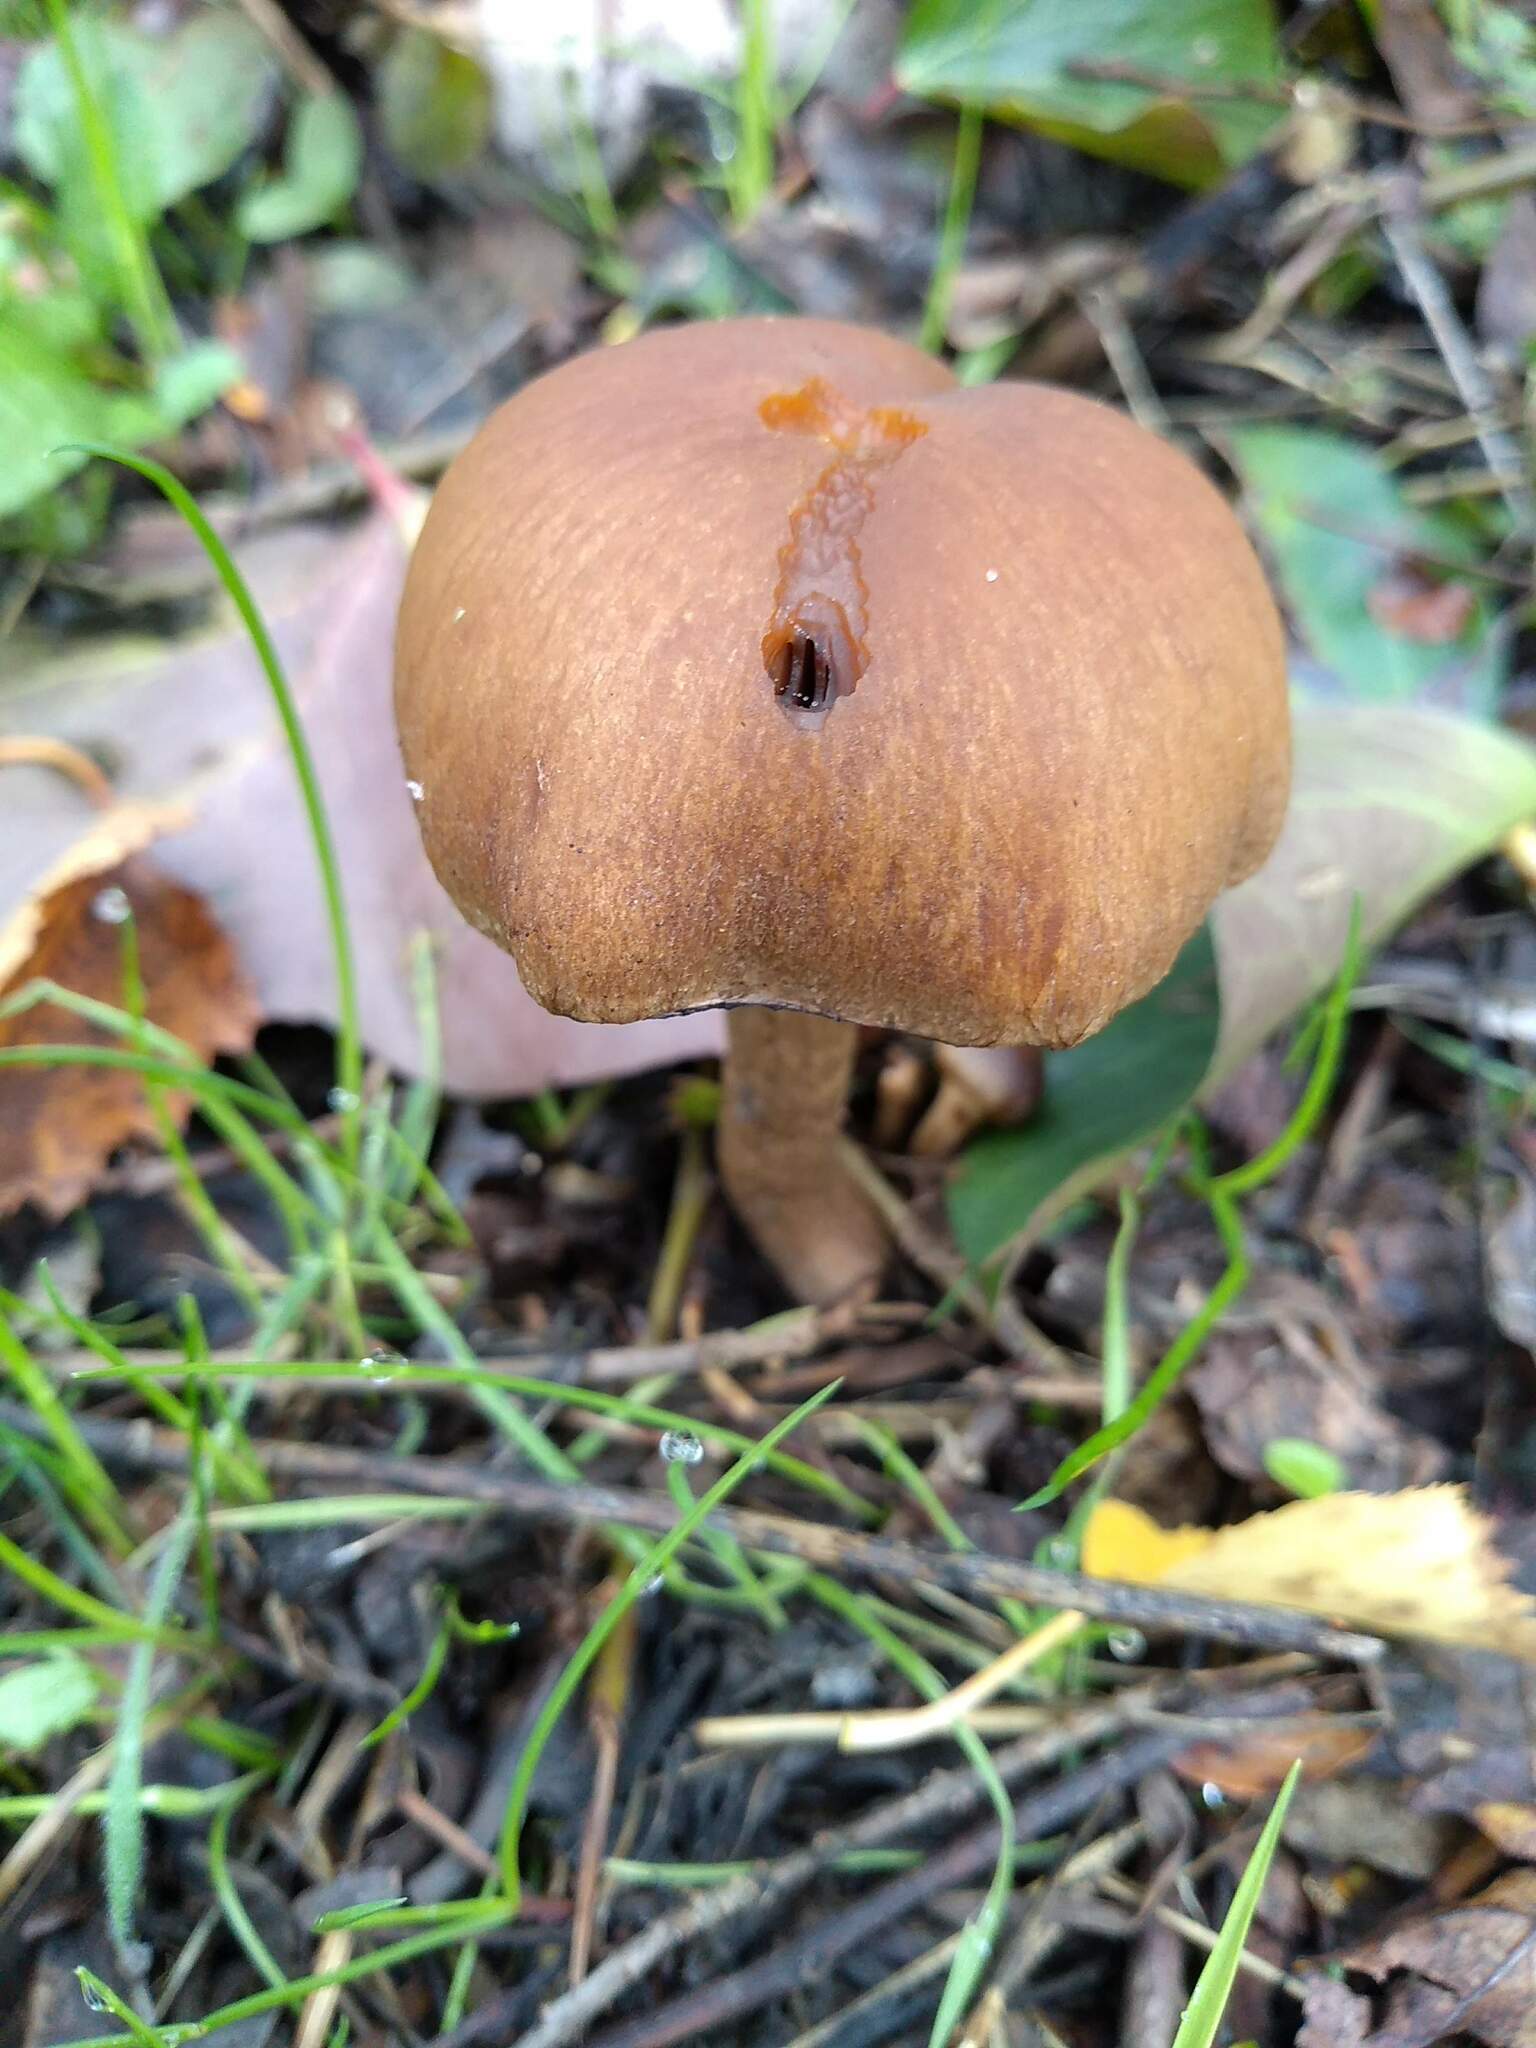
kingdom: Fungi
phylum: Basidiomycota
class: Agaricomycetes
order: Agaricales
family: Psathyrellaceae
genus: Lacrymaria
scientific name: Lacrymaria lacrymabunda
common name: Weeping widow
